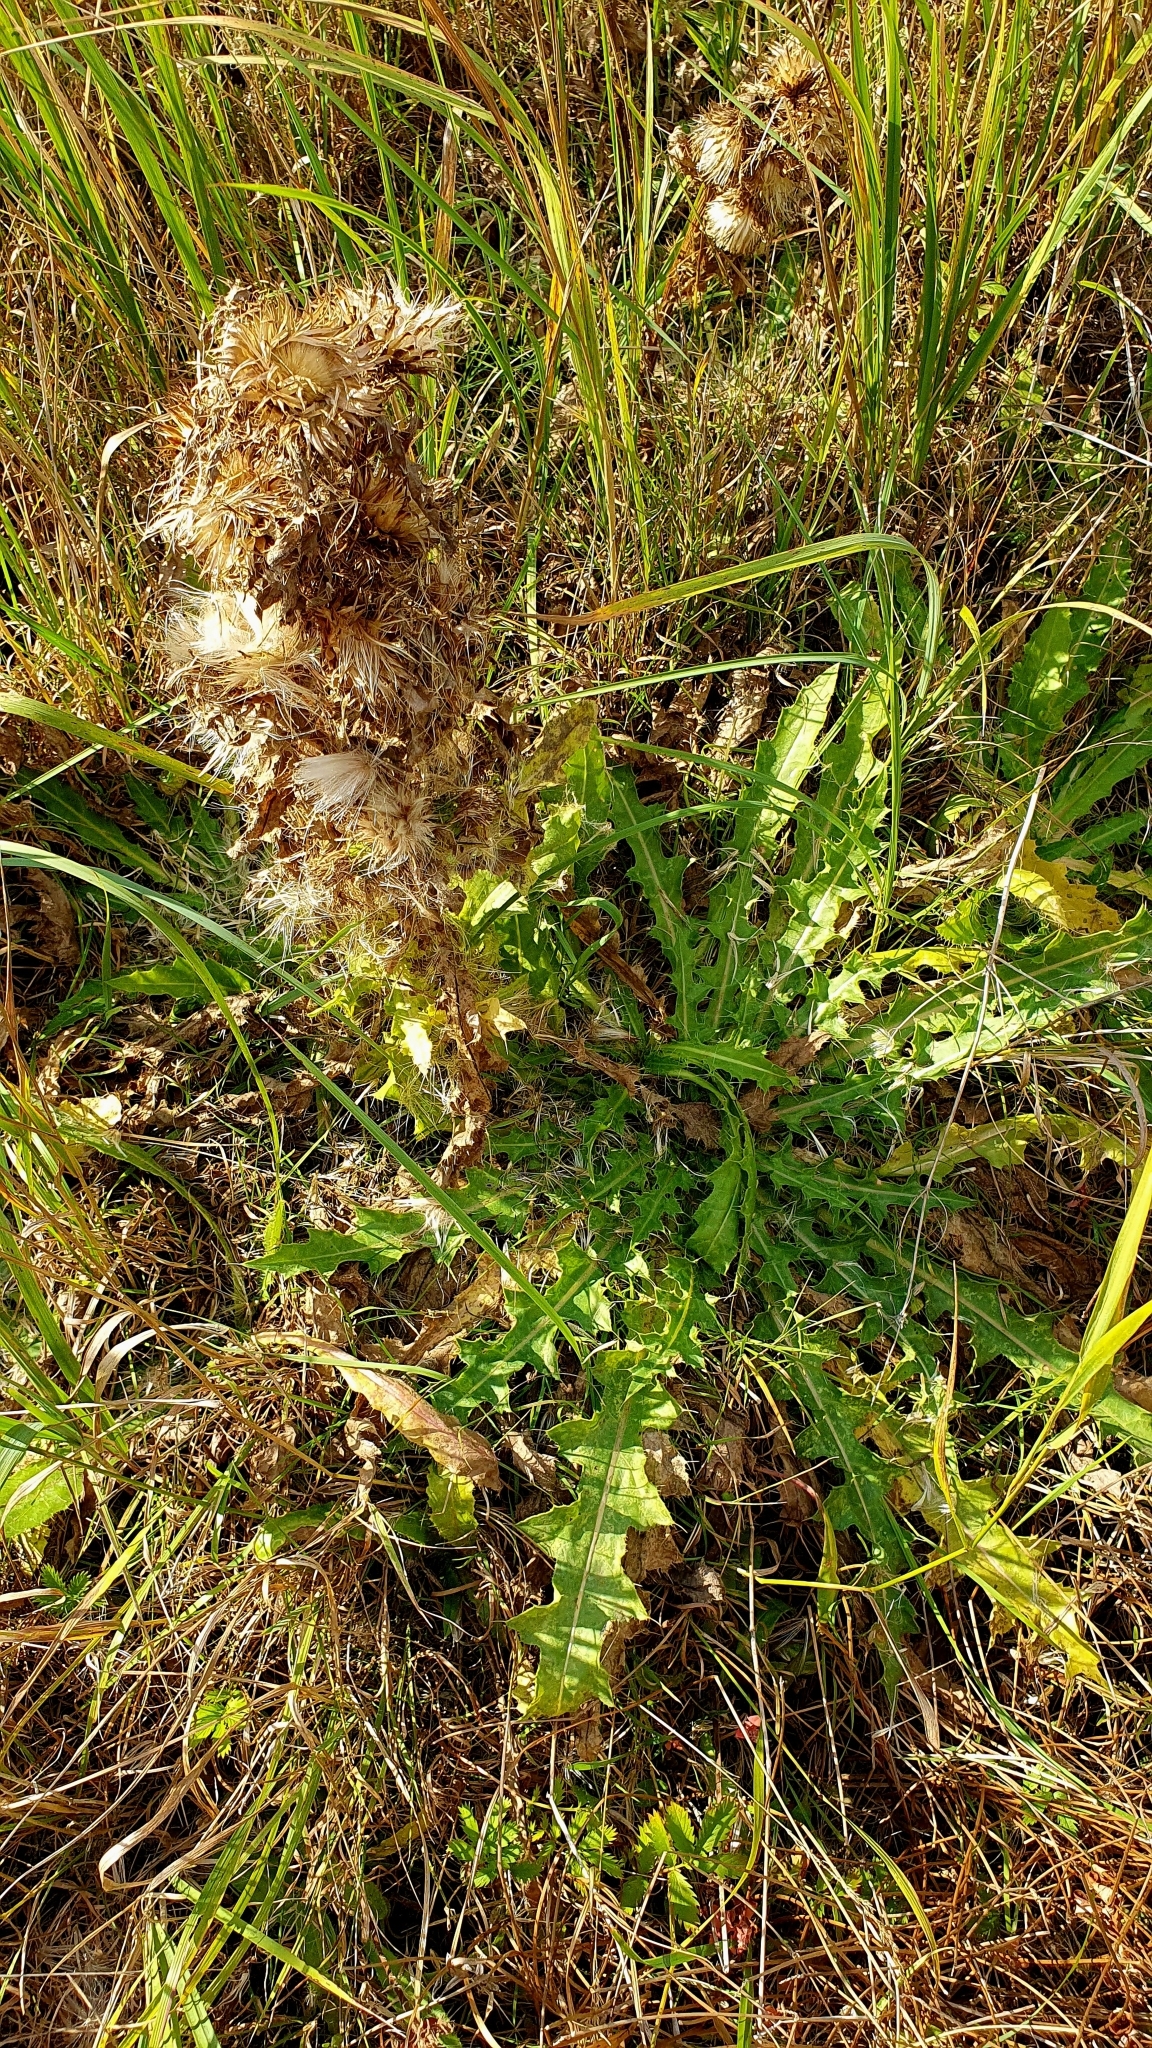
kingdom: Plantae
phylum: Tracheophyta
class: Magnoliopsida
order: Asterales
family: Asteraceae
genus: Cirsium
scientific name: Cirsium esculentum
